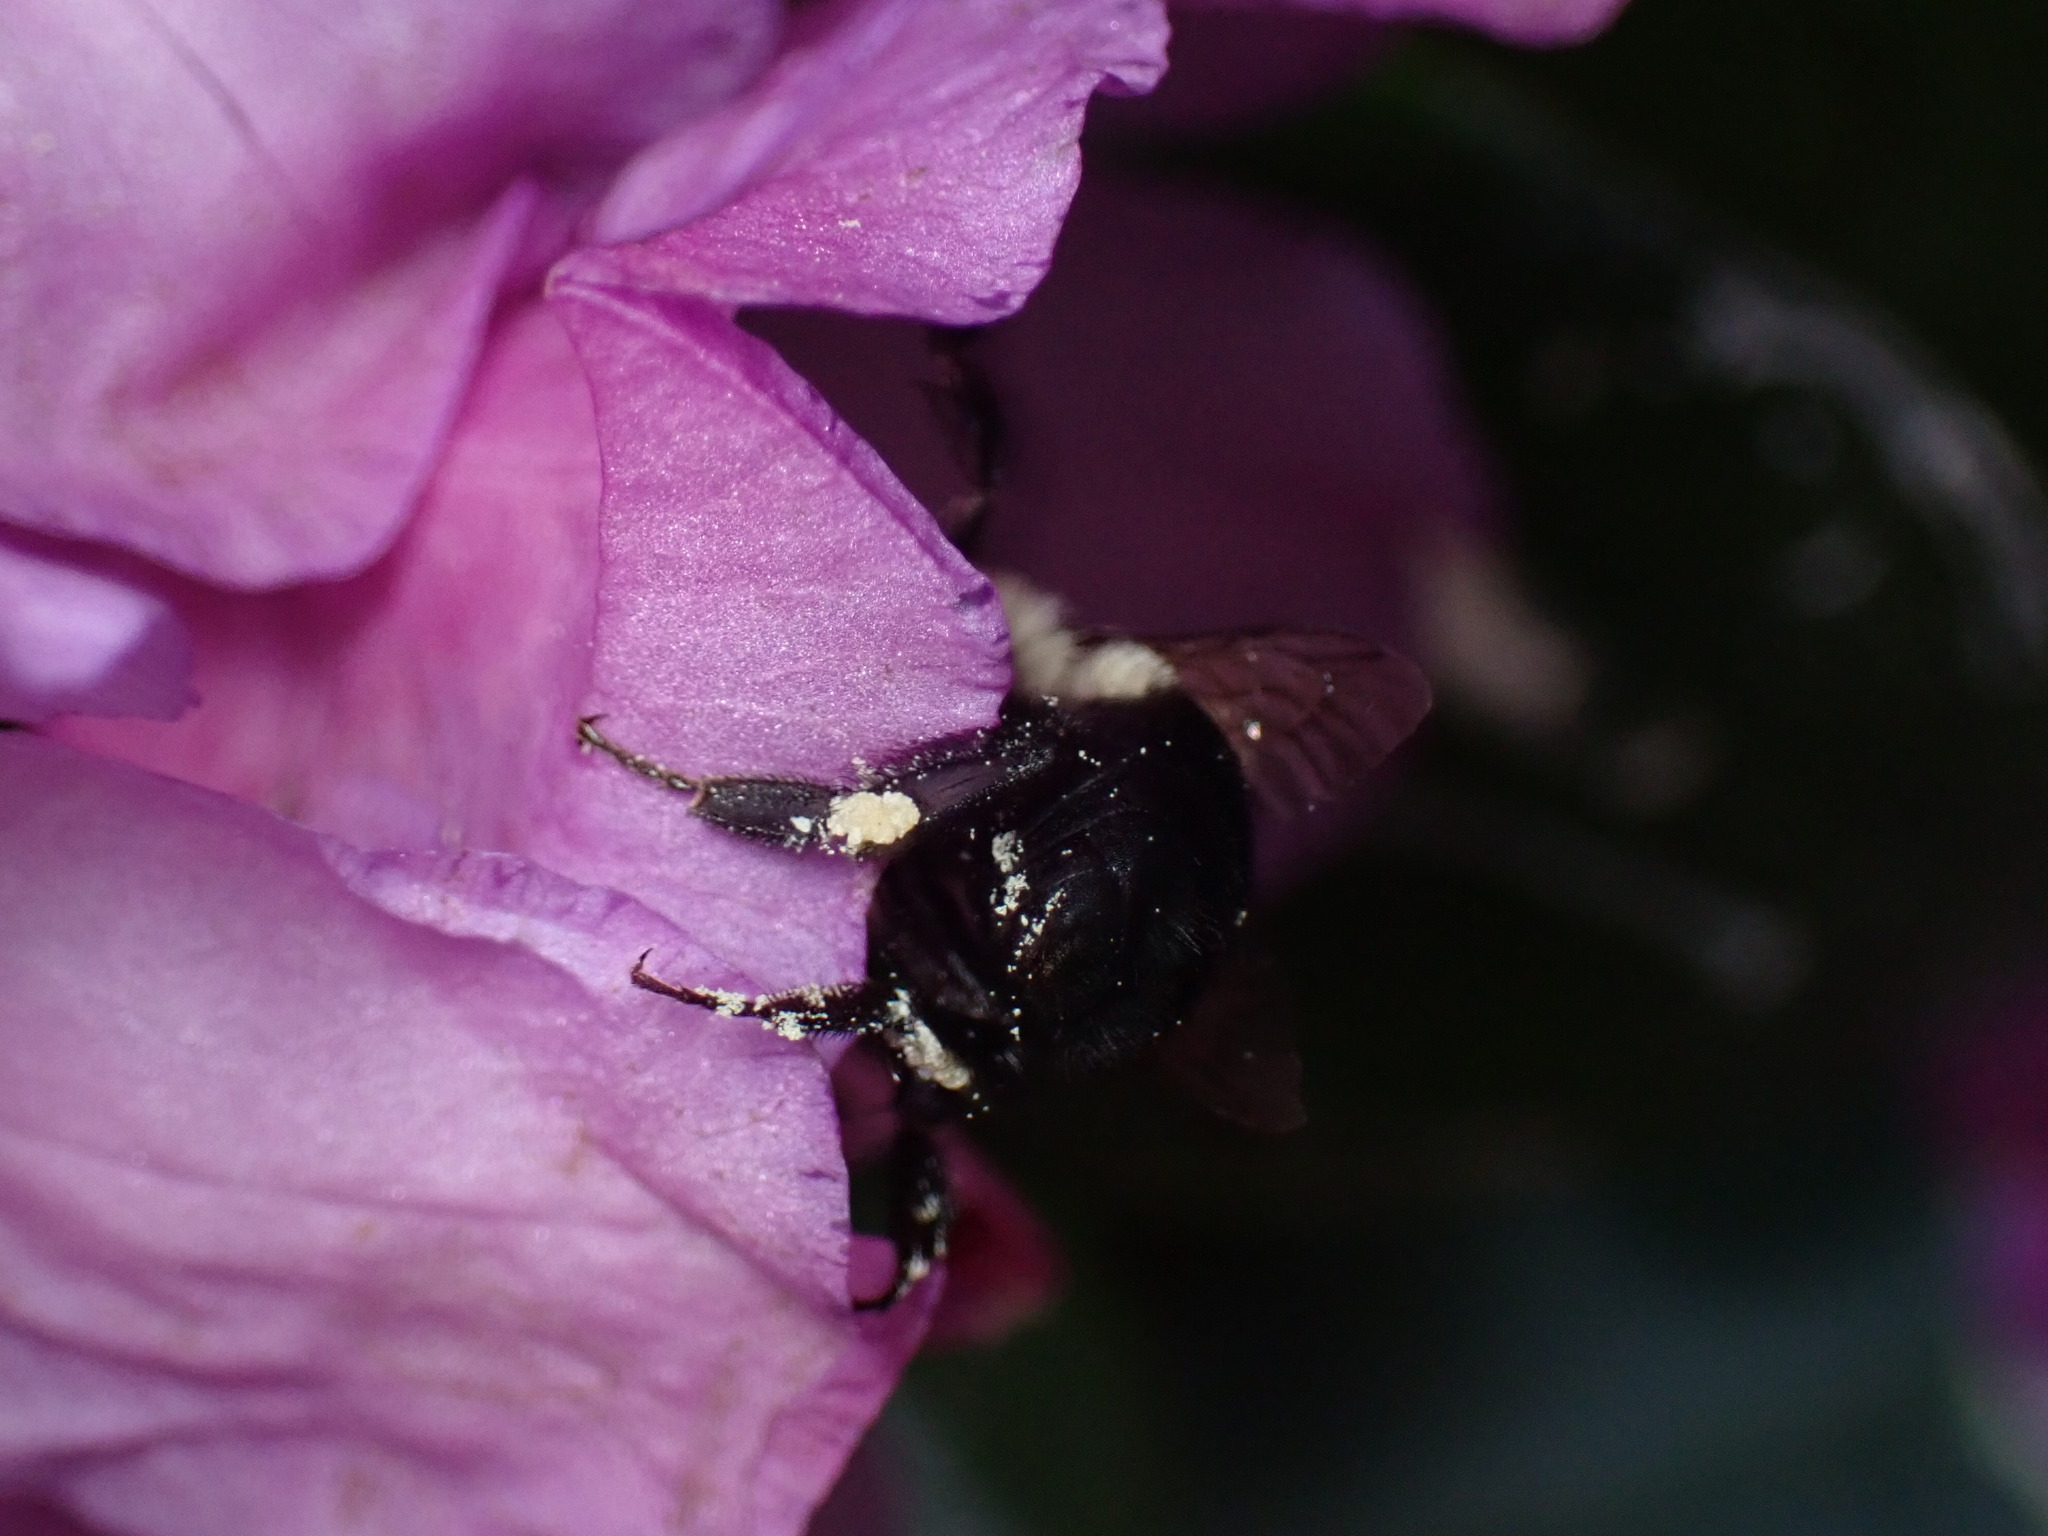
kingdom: Animalia
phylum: Arthropoda
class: Insecta
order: Hymenoptera
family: Apidae
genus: Bombus
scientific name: Bombus impatiens
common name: Common eastern bumble bee
